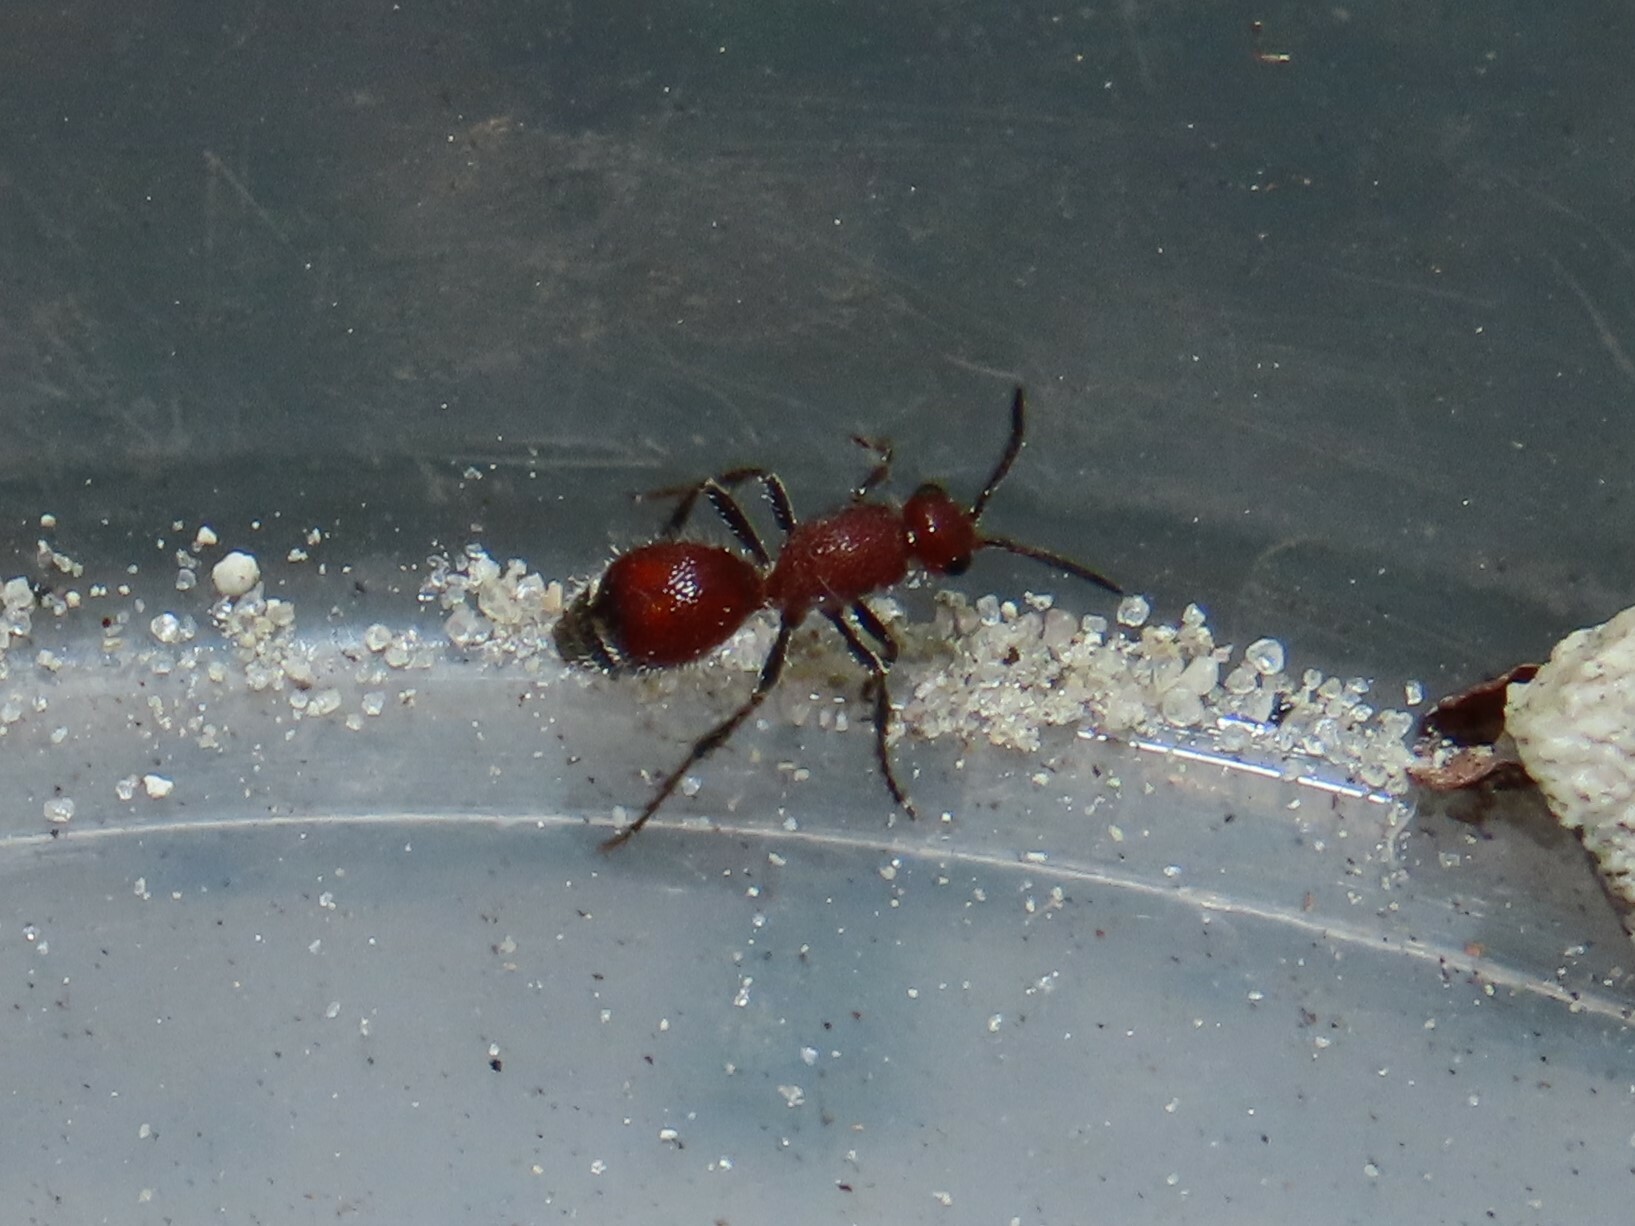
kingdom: Animalia
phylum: Arthropoda
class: Insecta
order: Hymenoptera
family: Mutillidae
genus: Dasymutilla
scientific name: Dasymutilla
